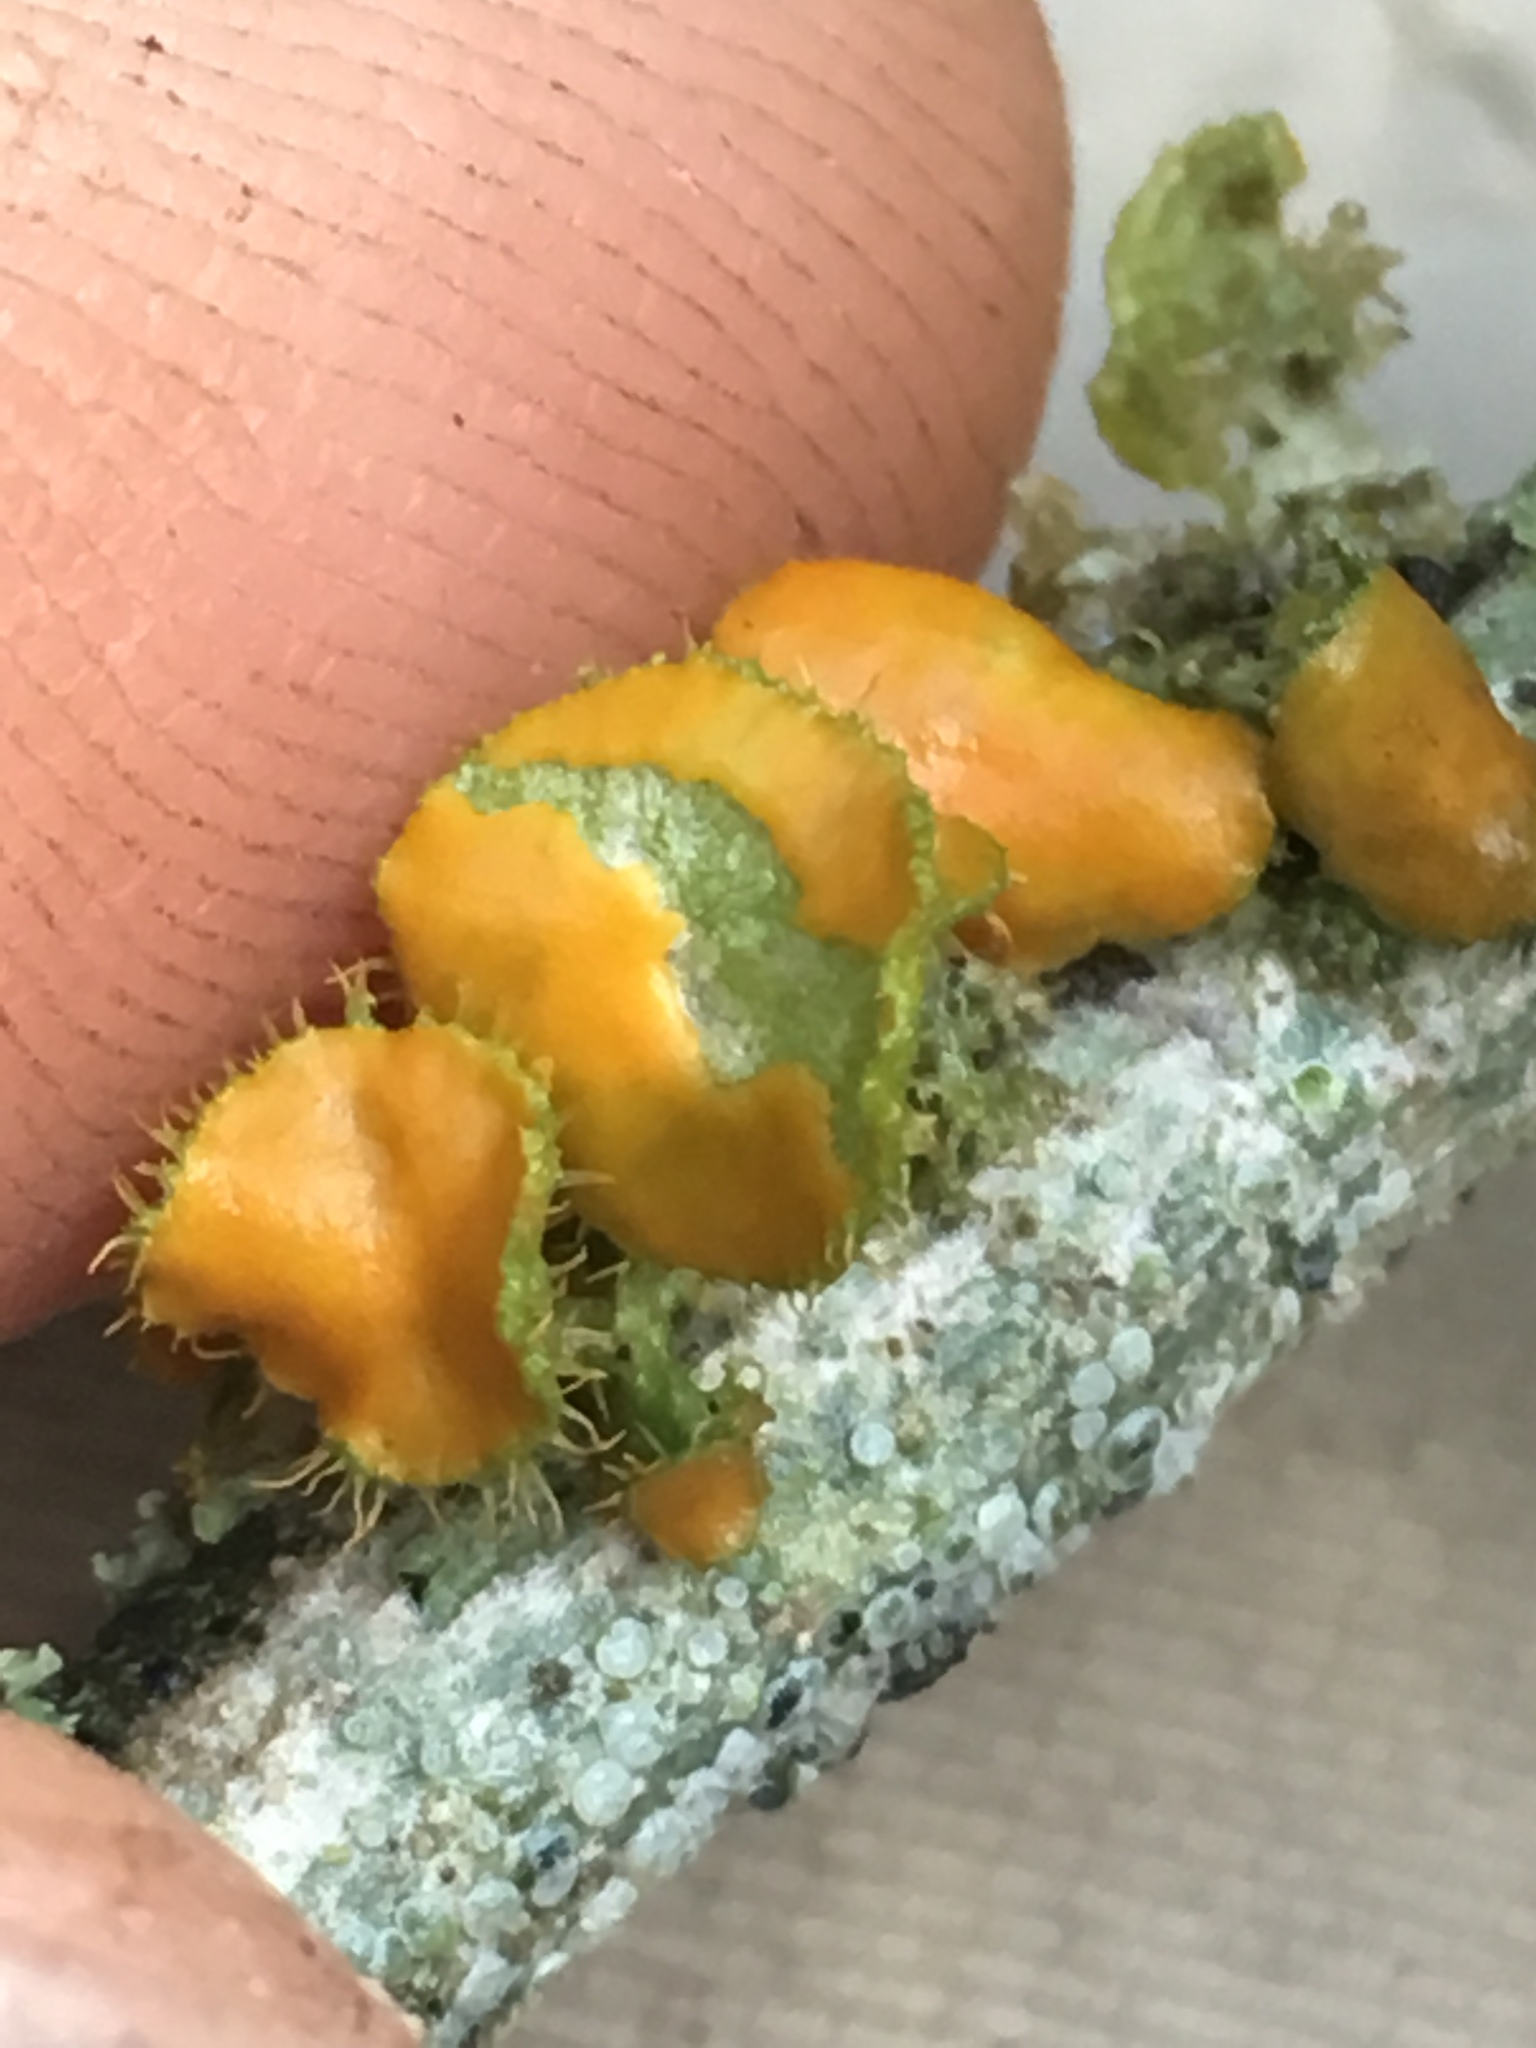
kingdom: Fungi
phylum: Ascomycota
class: Lecanoromycetes
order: Teloschistales
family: Teloschistaceae
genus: Niorma
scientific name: Niorma chrysophthalma
